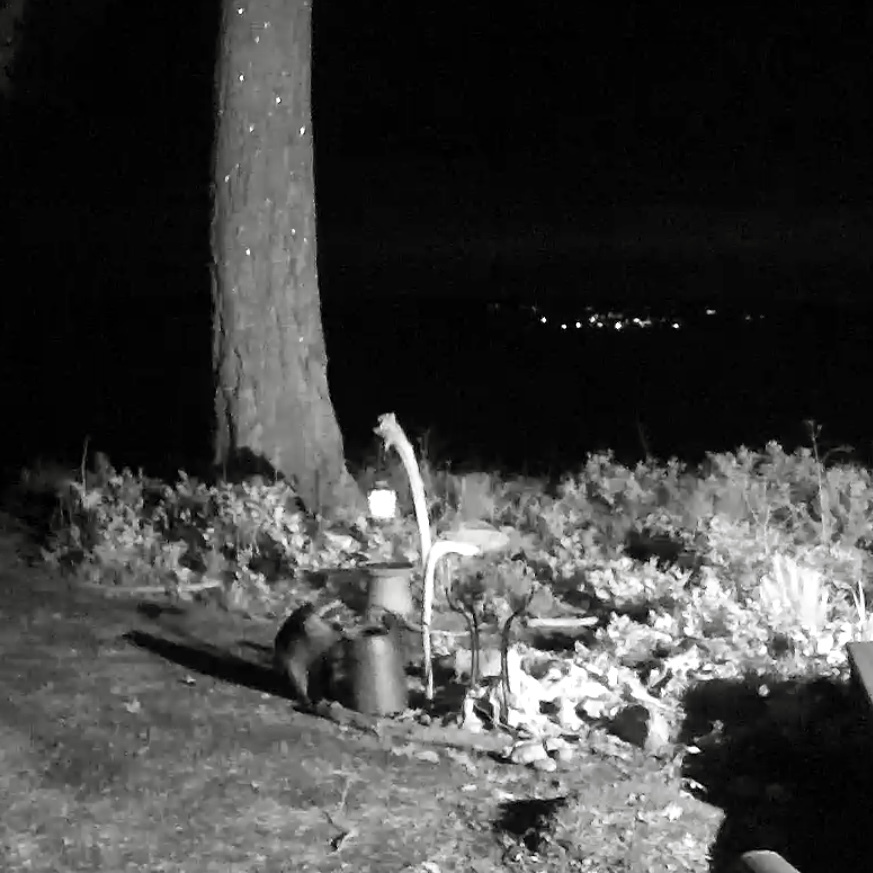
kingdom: Animalia
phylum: Chordata
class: Mammalia
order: Carnivora
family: Procyonidae
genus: Procyon
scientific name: Procyon lotor
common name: Raccoon
